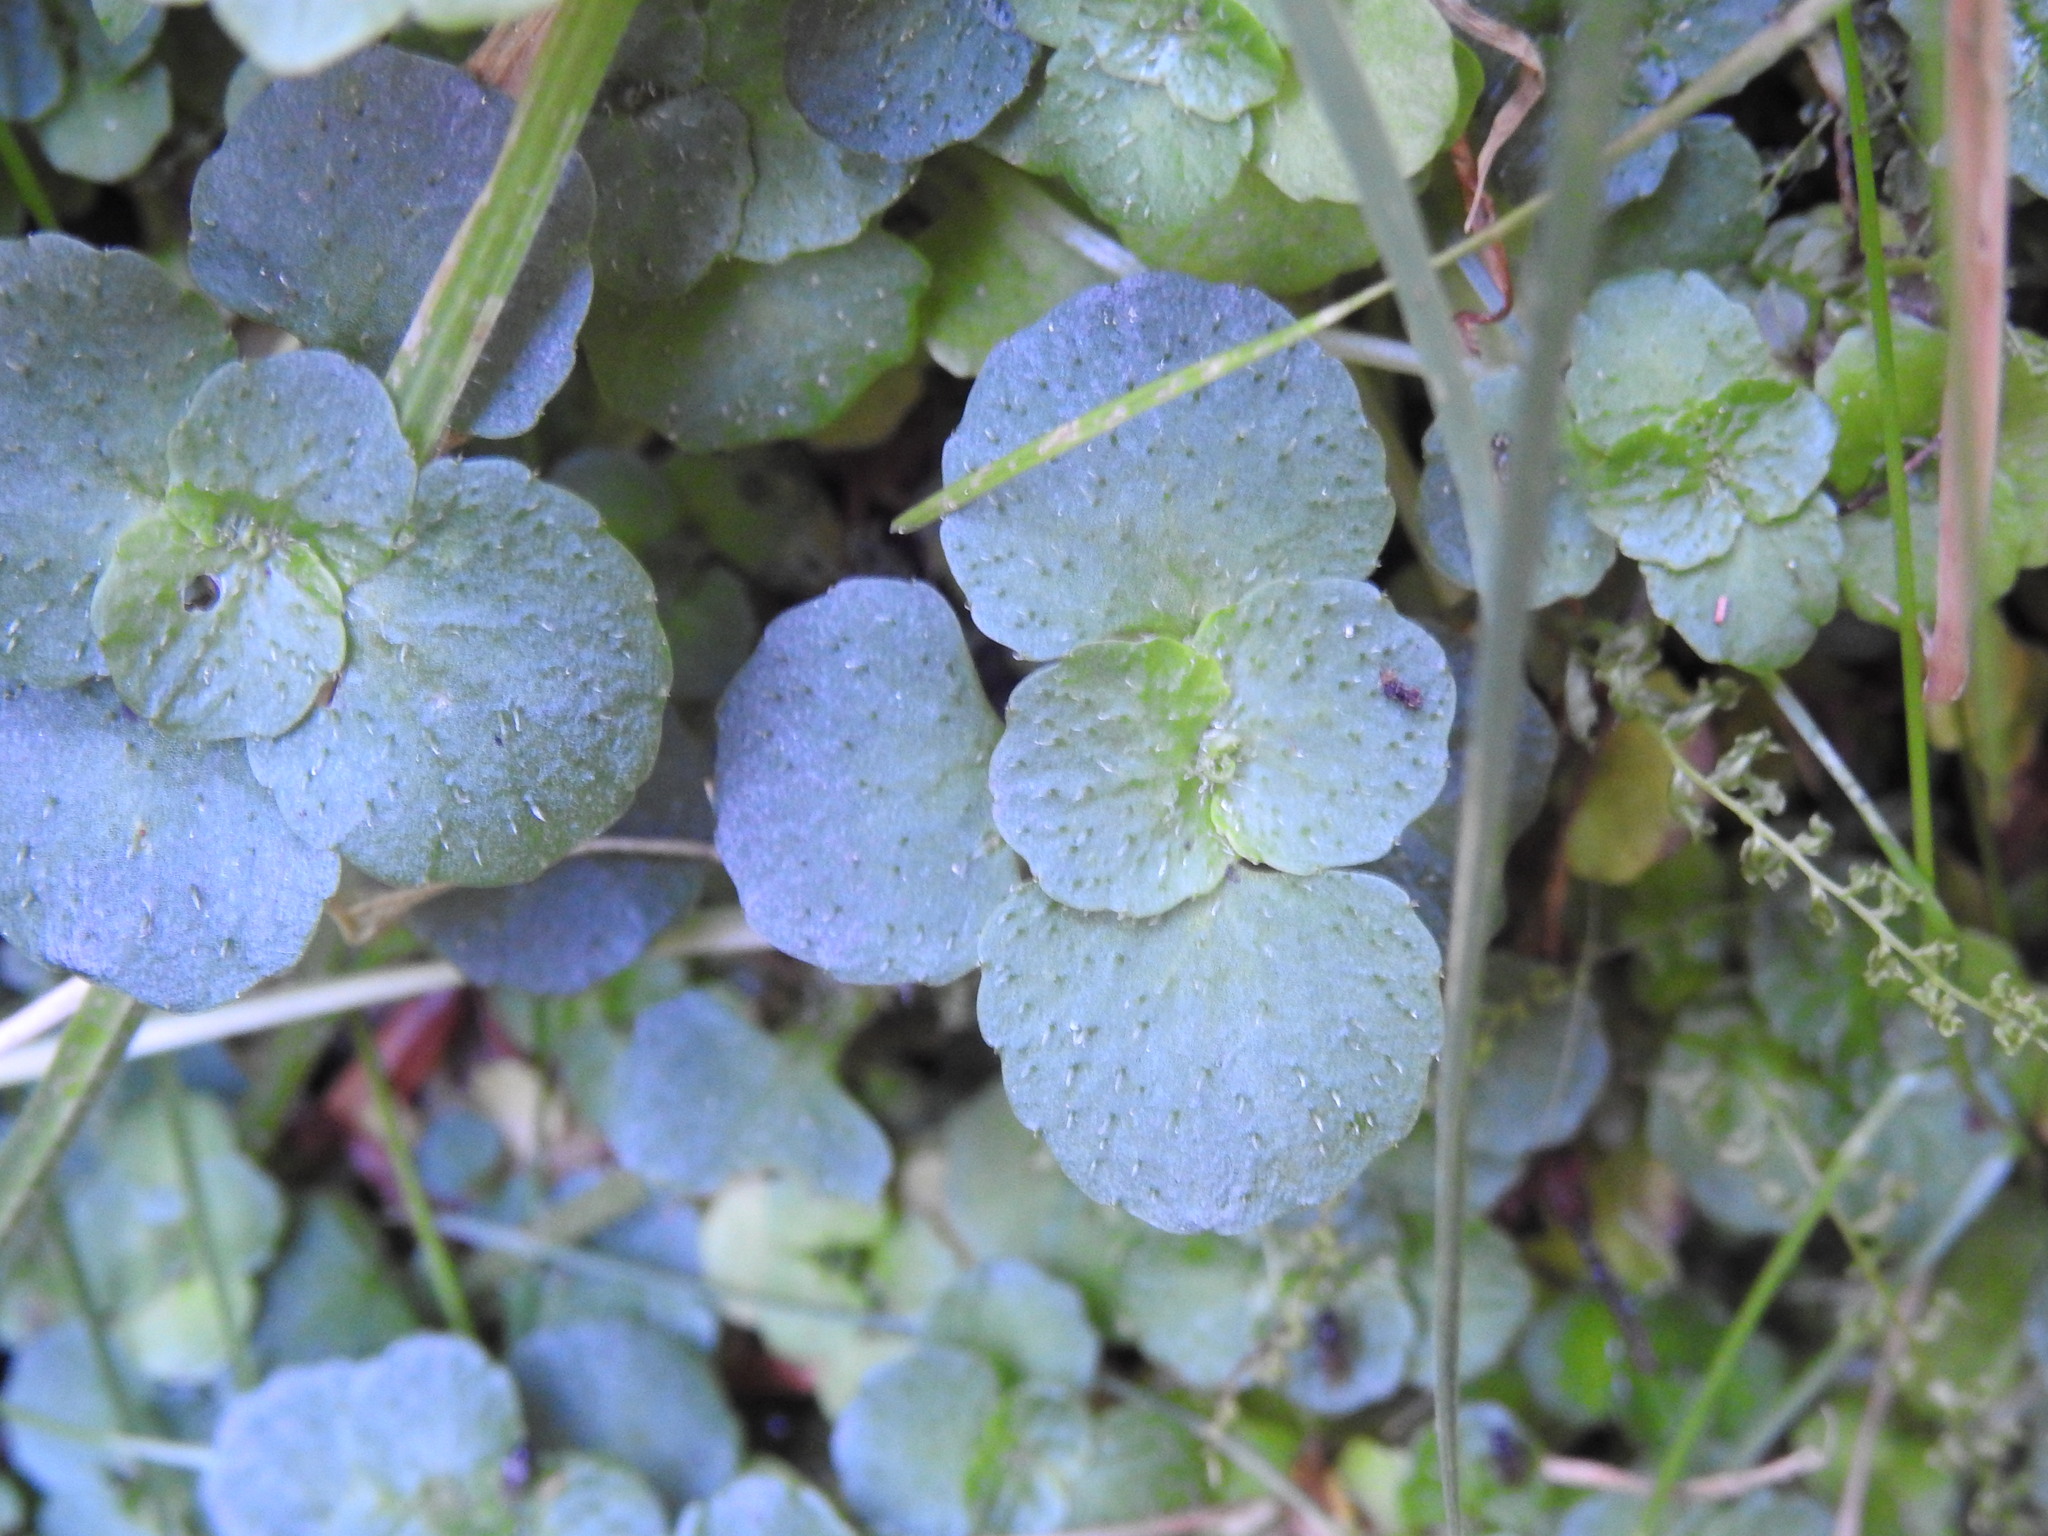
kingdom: Plantae
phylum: Tracheophyta
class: Magnoliopsida
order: Saxifragales
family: Saxifragaceae
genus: Chrysosplenium
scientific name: Chrysosplenium oppositifolium
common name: Opposite-leaved golden-saxifrage
